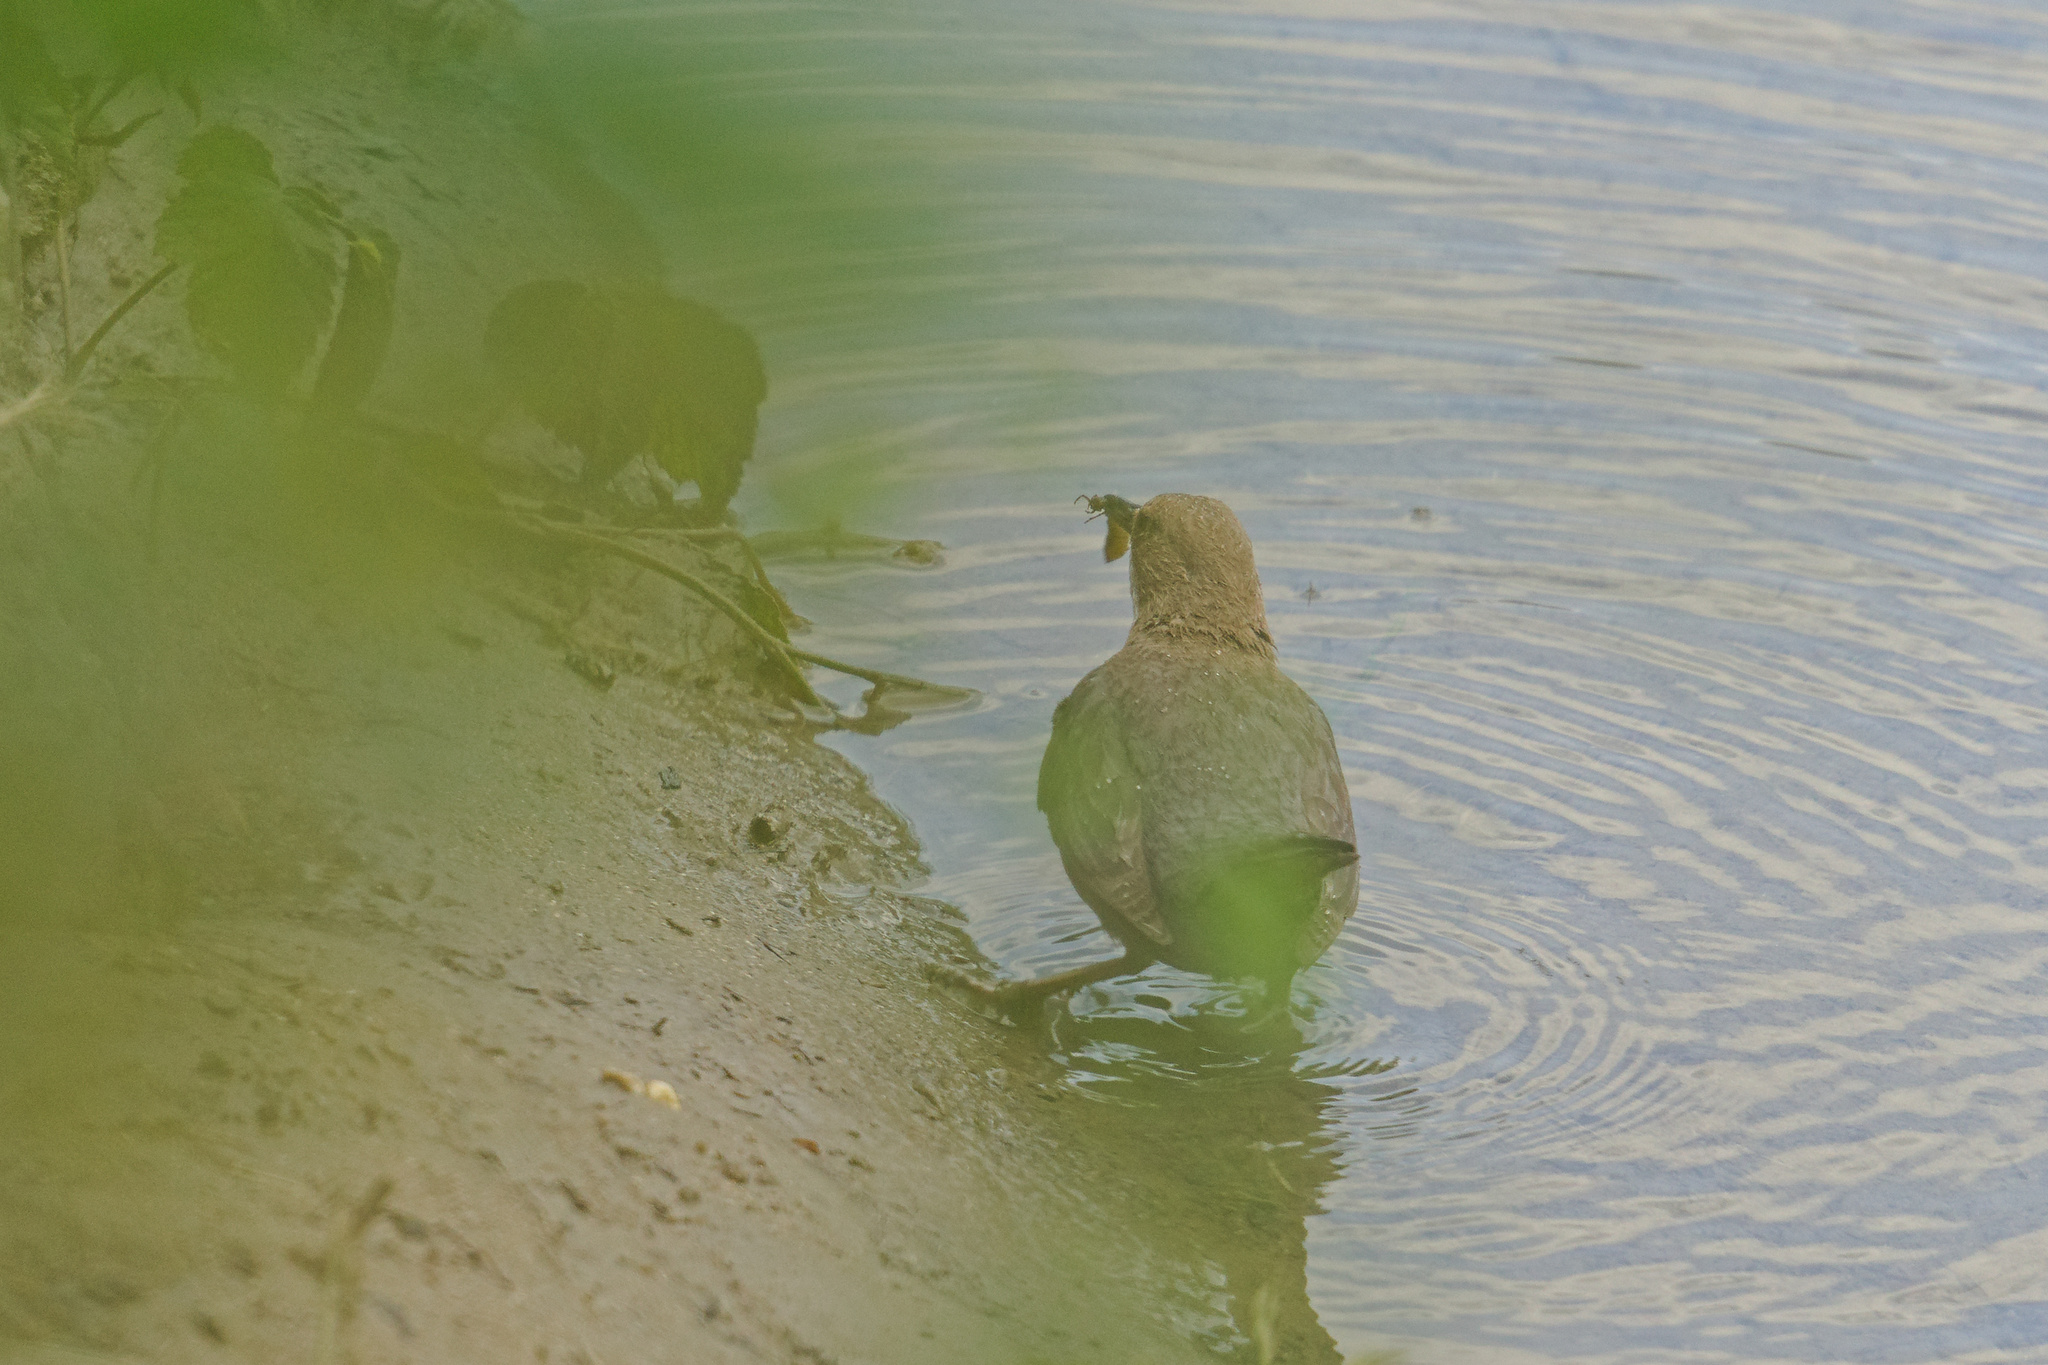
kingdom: Animalia
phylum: Chordata
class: Aves
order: Passeriformes
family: Cinclidae
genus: Cinclus
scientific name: Cinclus cinclus
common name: White-throated dipper
